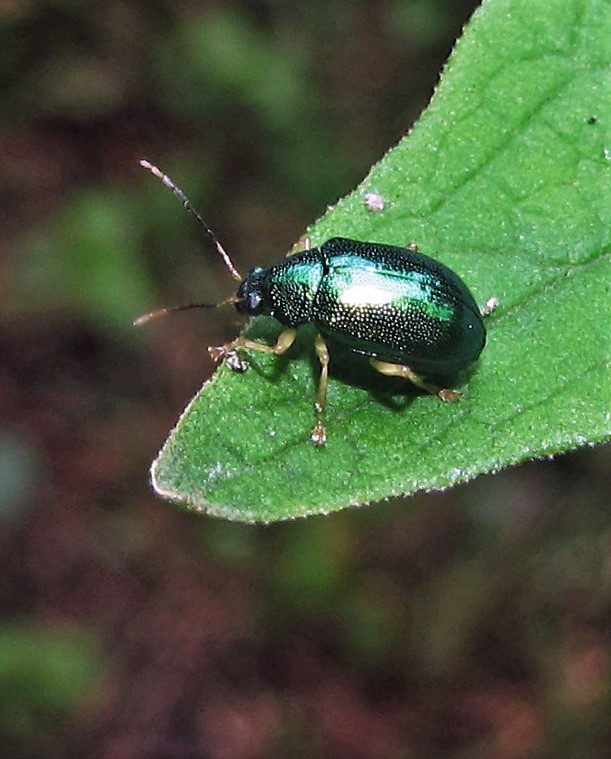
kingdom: Animalia
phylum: Arthropoda
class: Insecta
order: Coleoptera
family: Chrysomelidae
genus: Colaspis
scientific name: Colaspis
